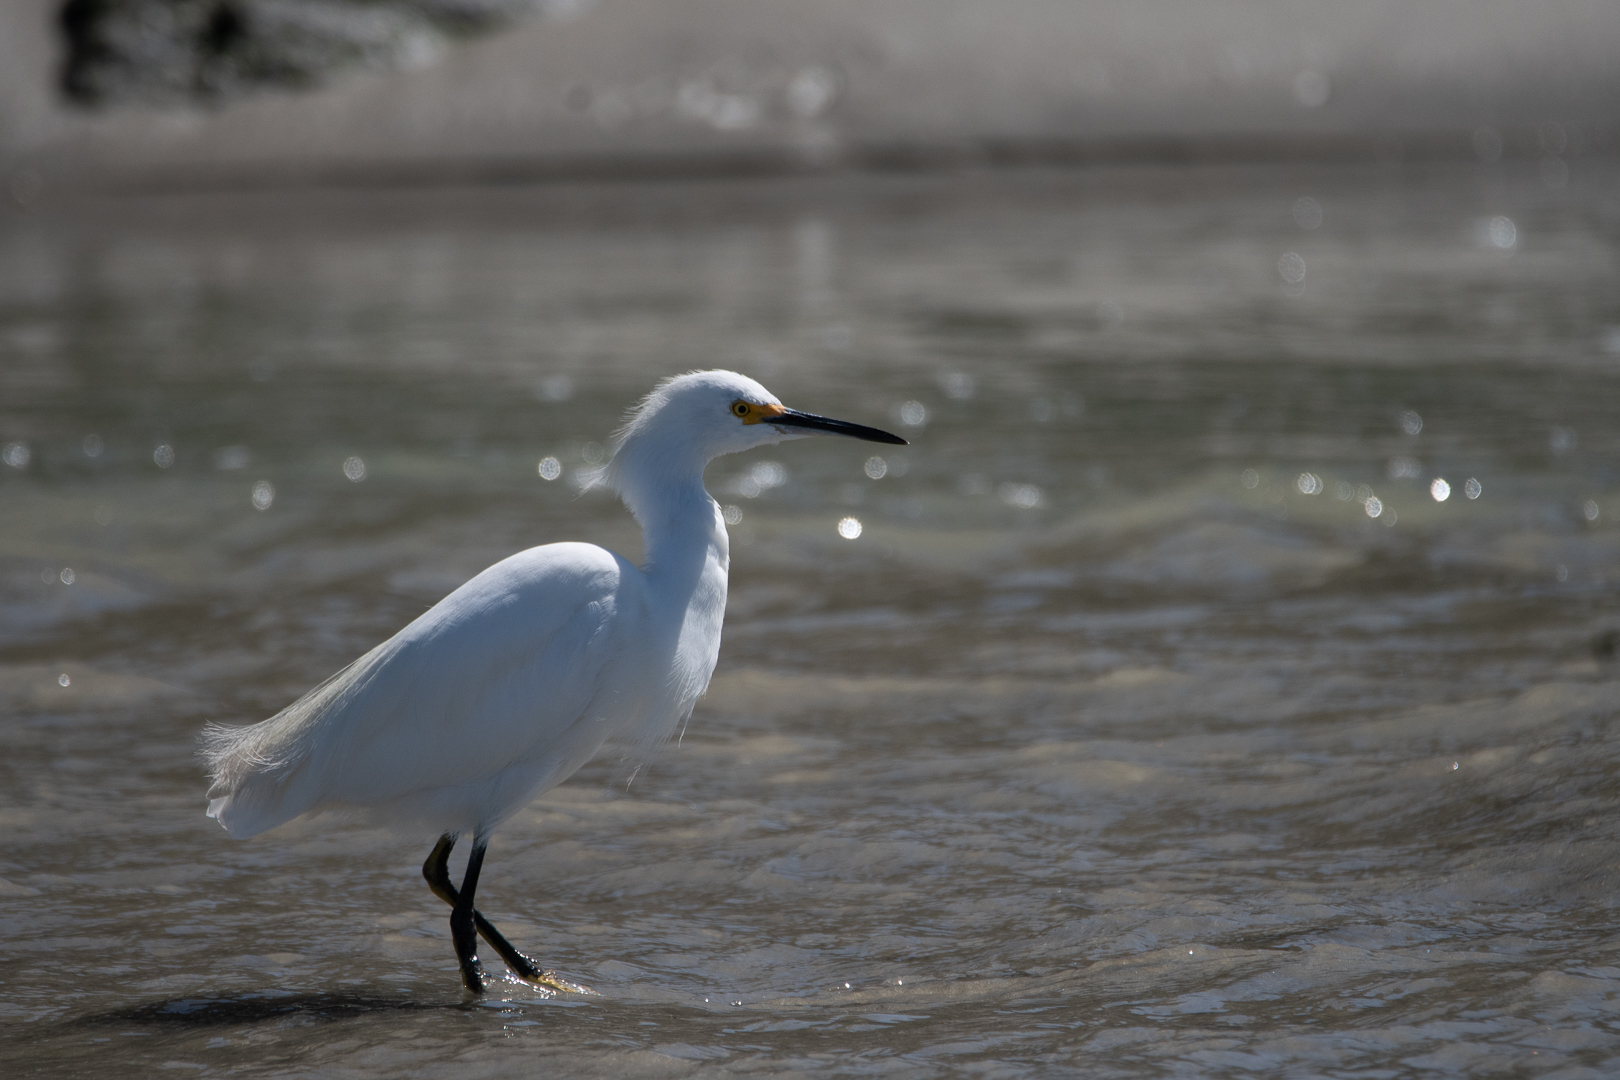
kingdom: Animalia
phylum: Chordata
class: Aves
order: Pelecaniformes
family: Ardeidae
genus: Egretta
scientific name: Egretta thula
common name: Snowy egret
